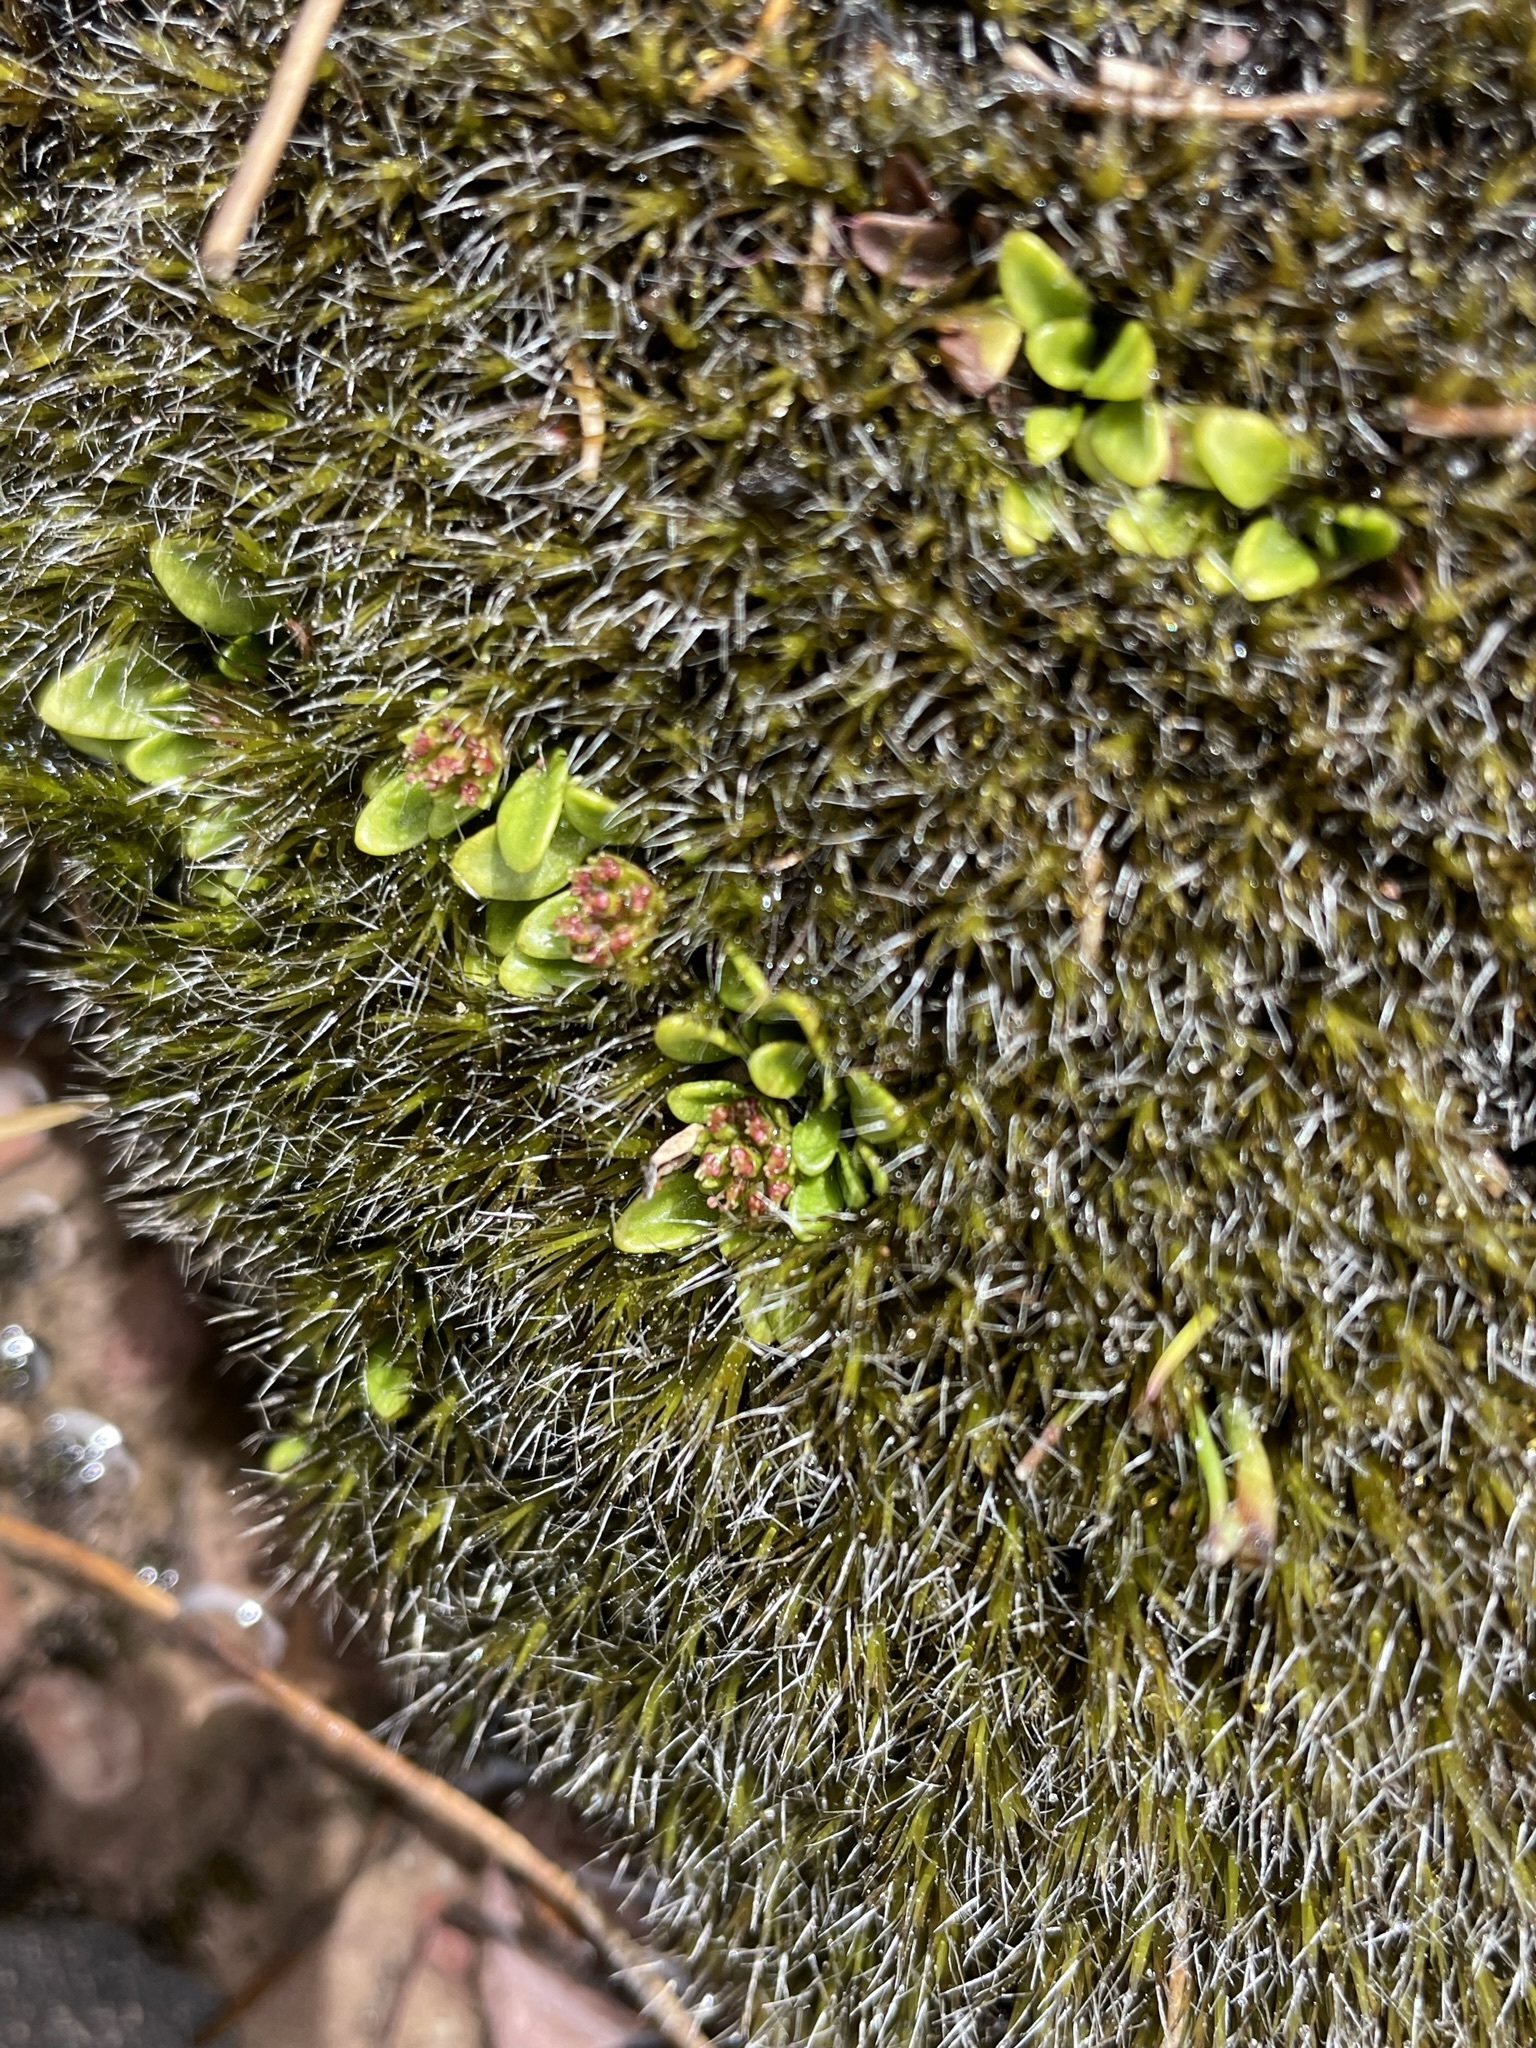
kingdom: Plantae
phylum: Tracheophyta
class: Magnoliopsida
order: Apiales
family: Apiaceae
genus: Actinotus
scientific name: Actinotus suffocatus
